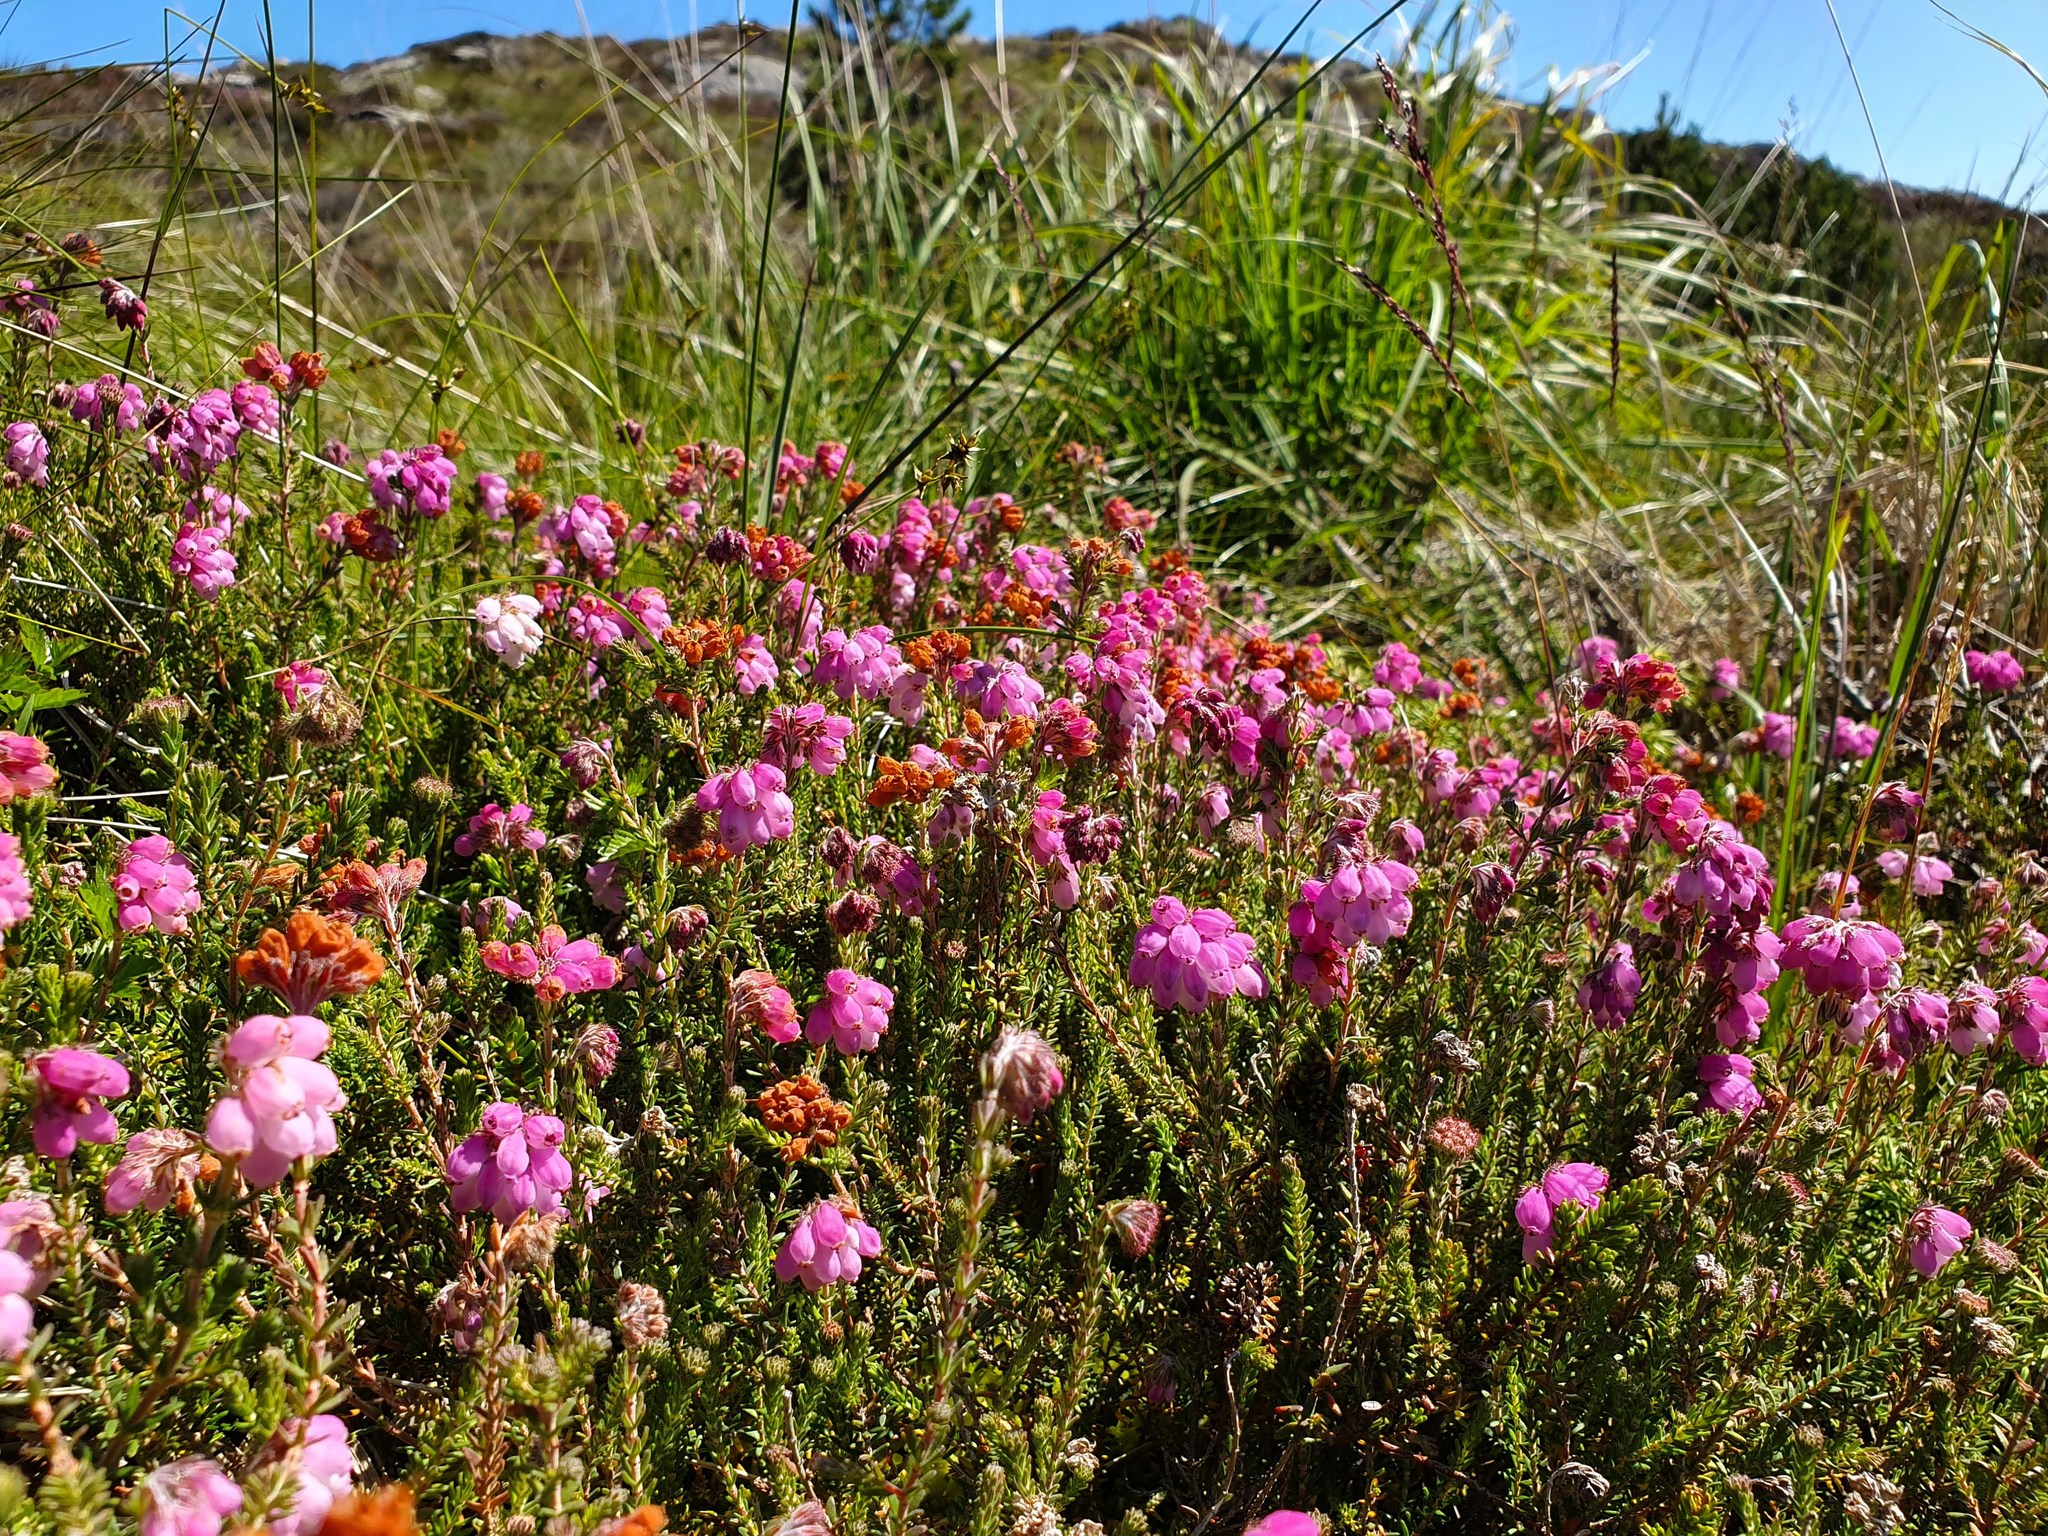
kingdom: Plantae
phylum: Tracheophyta
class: Magnoliopsida
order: Ericales
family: Ericaceae
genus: Erica
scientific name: Erica tetralix
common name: Cross-leaved heath
